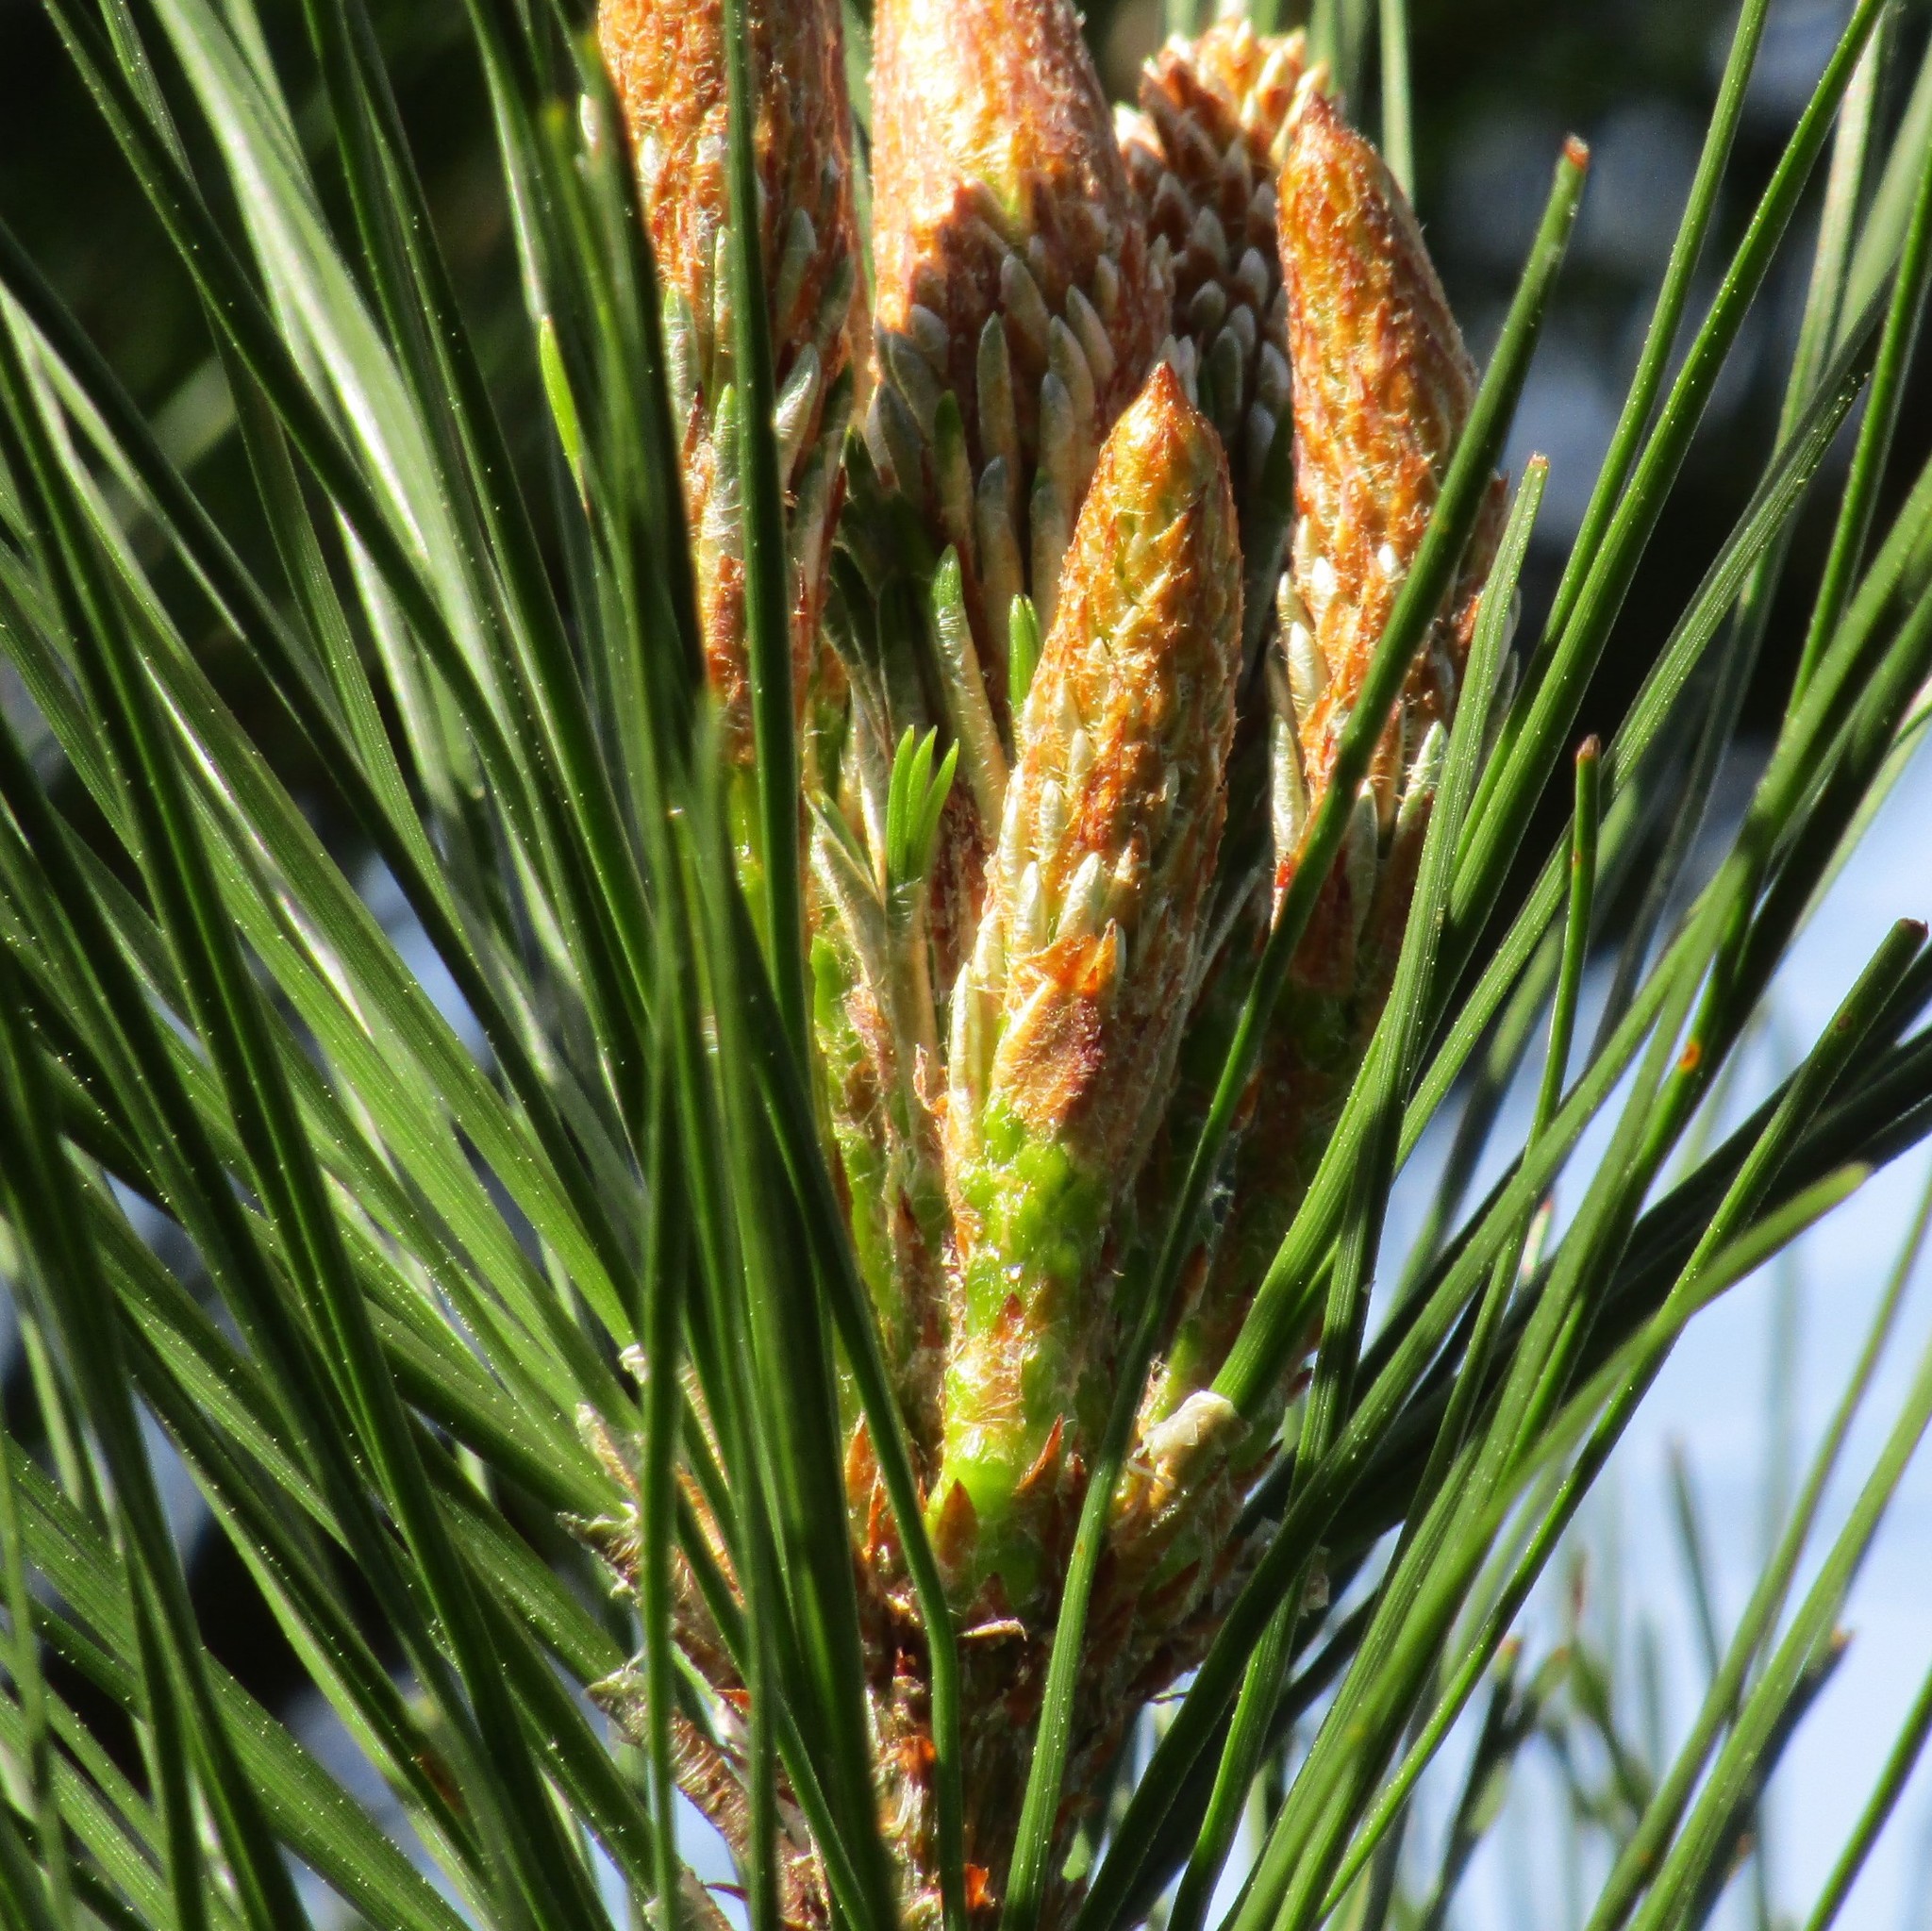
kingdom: Plantae
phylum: Tracheophyta
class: Pinopsida
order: Pinales
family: Pinaceae
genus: Pinus
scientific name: Pinus radiata
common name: Monterey pine
